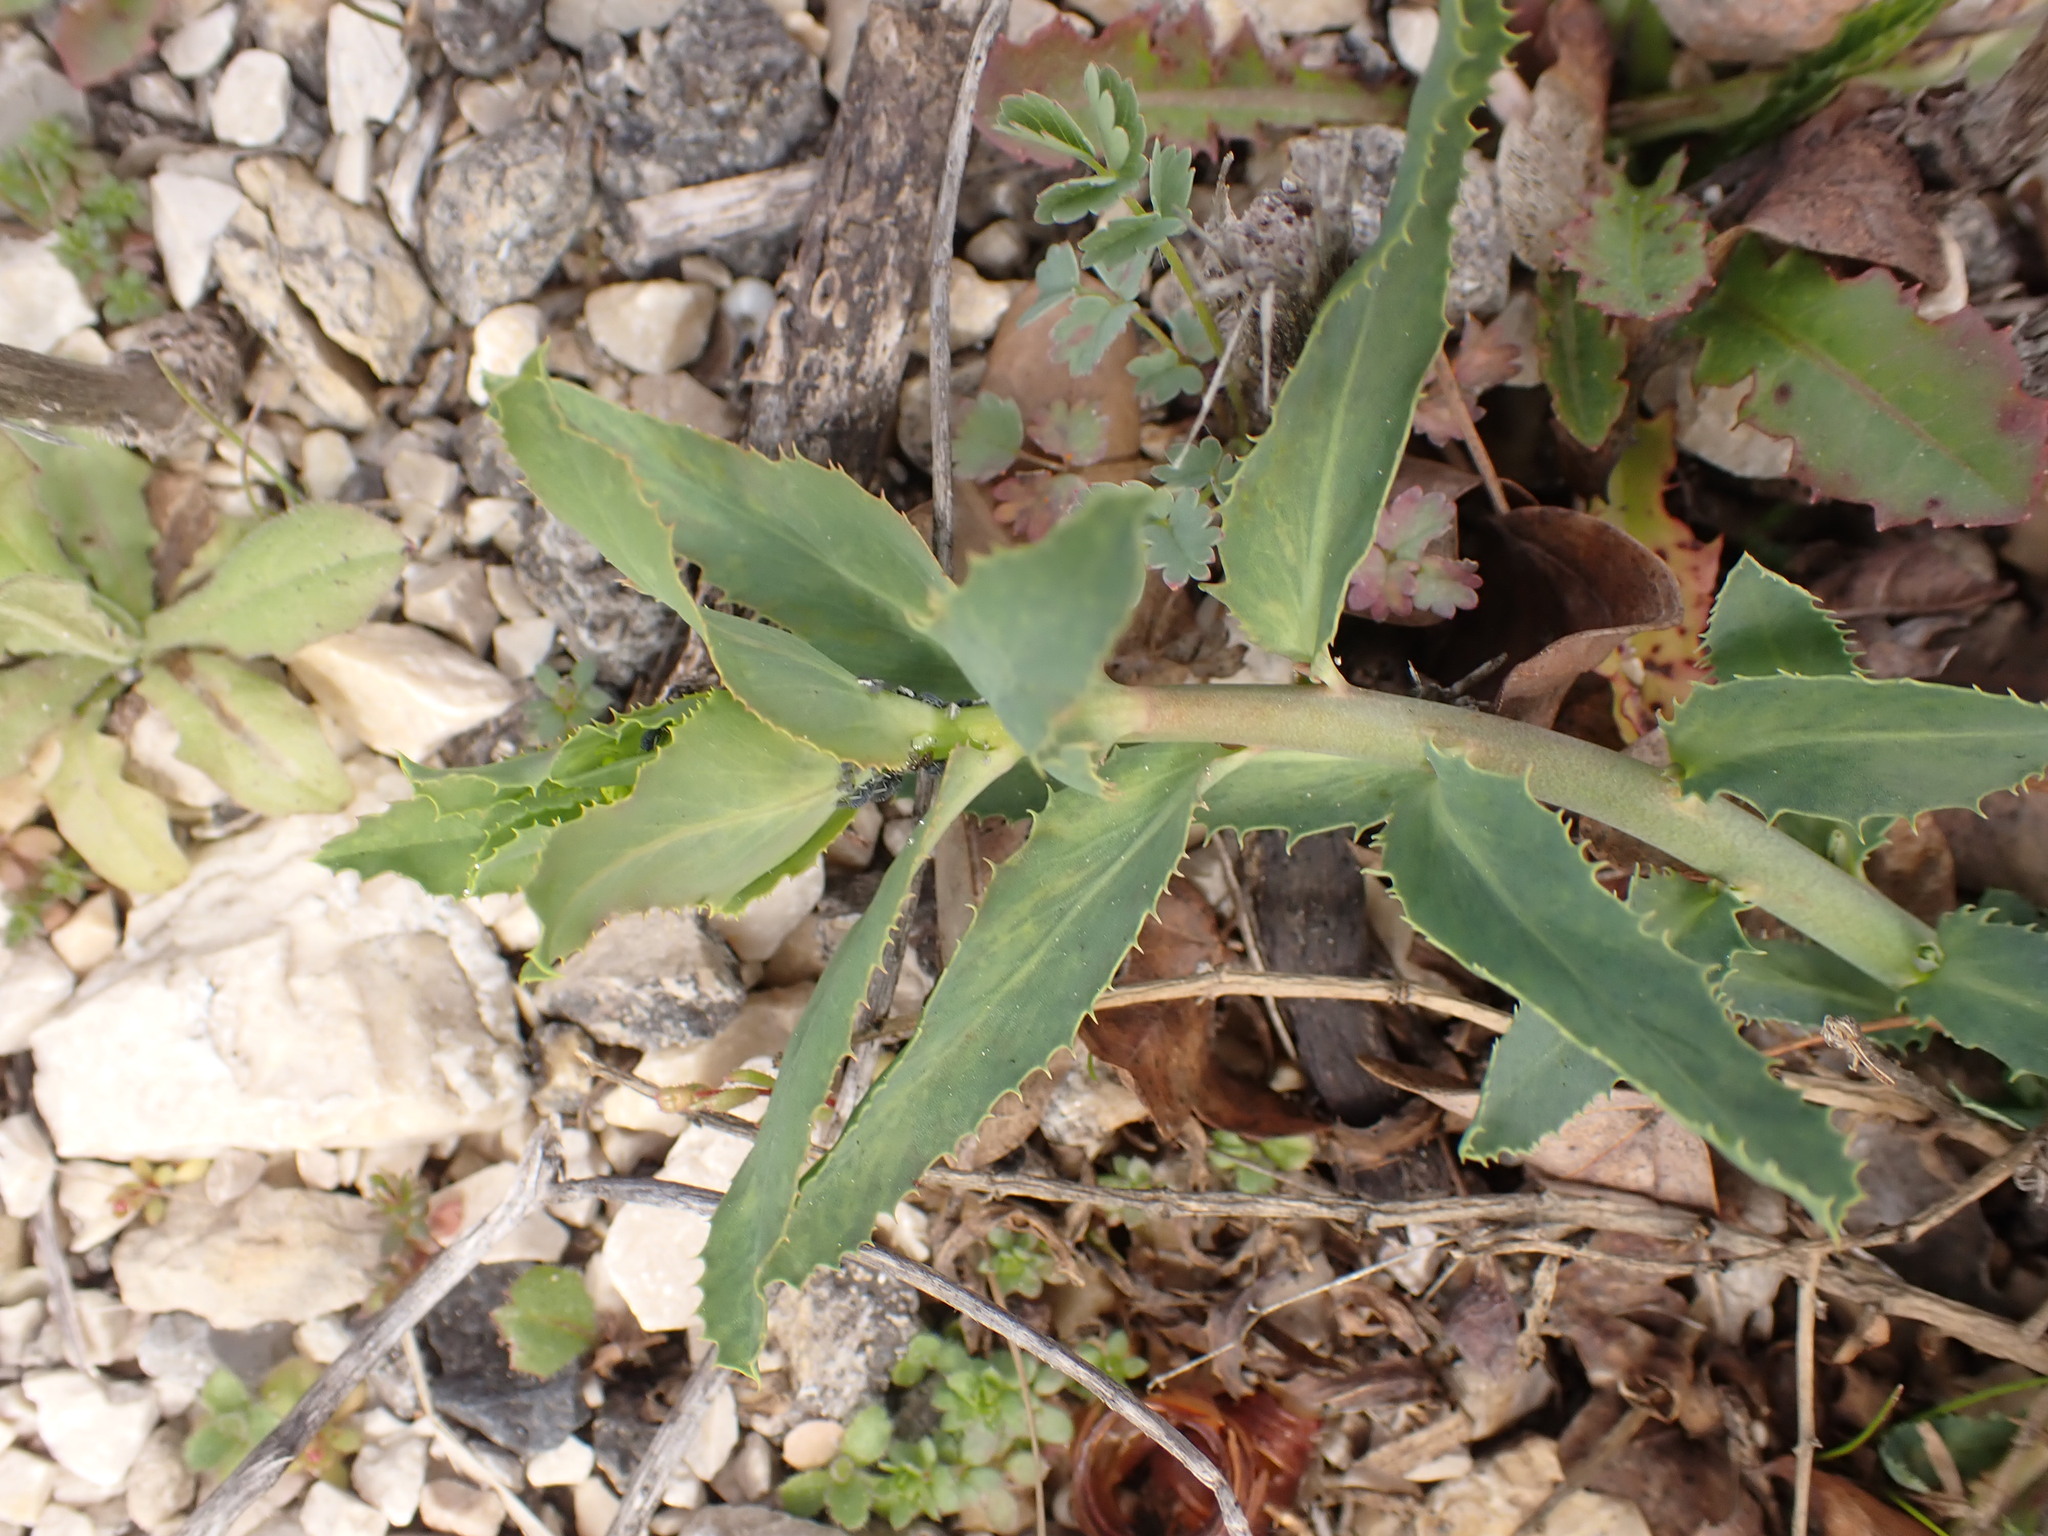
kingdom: Plantae
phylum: Tracheophyta
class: Magnoliopsida
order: Malpighiales
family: Euphorbiaceae
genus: Euphorbia
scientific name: Euphorbia serrata
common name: Serrate spurge
